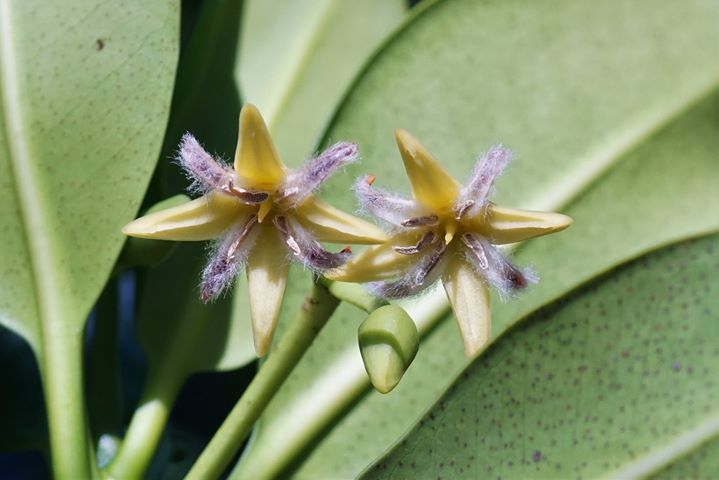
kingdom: Plantae
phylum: Tracheophyta
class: Magnoliopsida
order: Malpighiales
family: Rhizophoraceae
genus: Rhizophora
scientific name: Rhizophora mangle
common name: Red mangrove
